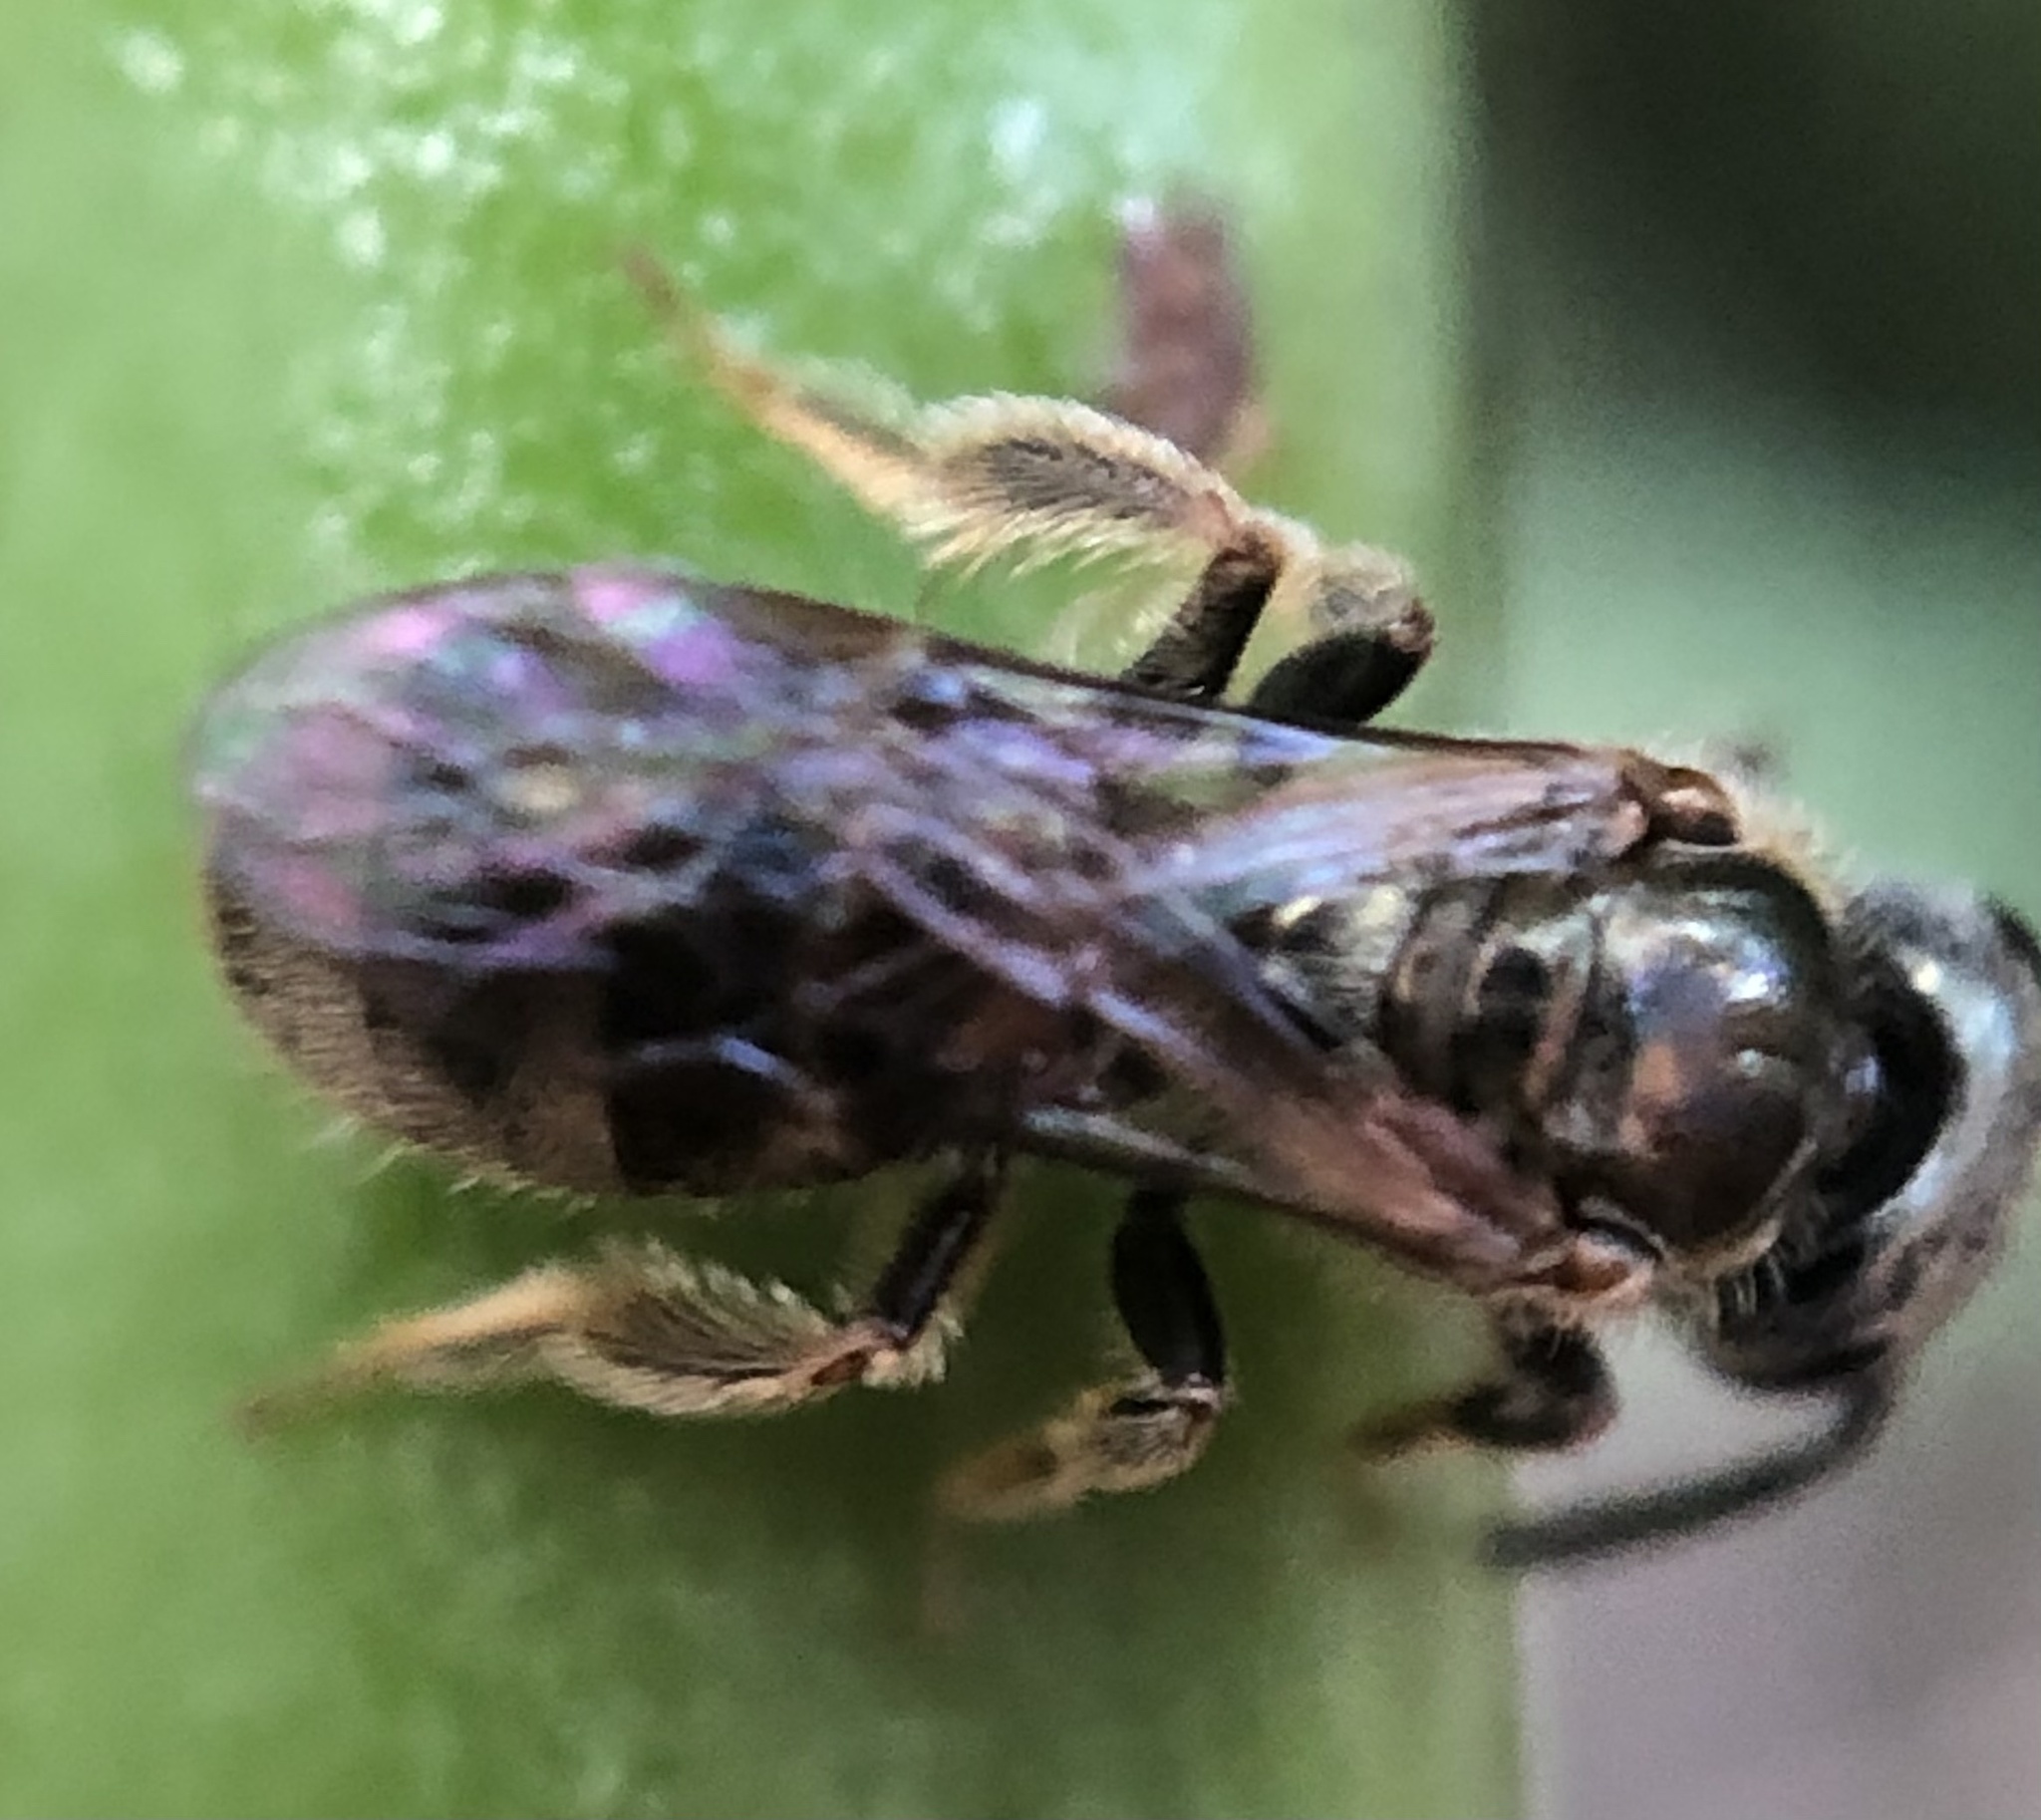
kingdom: Animalia
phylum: Arthropoda
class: Insecta
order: Hymenoptera
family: Halictidae
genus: Dialictus
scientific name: Dialictus
